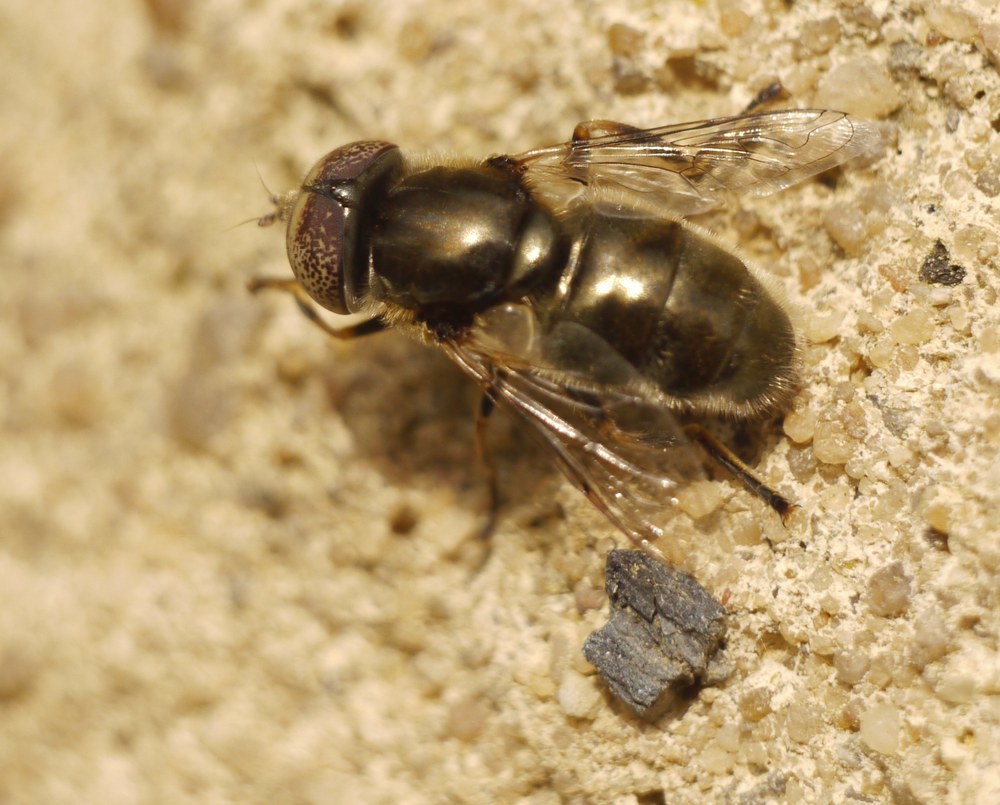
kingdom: Animalia
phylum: Arthropoda
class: Insecta
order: Diptera
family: Syrphidae
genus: Eristalinus
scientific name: Eristalinus aeneus
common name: Syrphid fly
